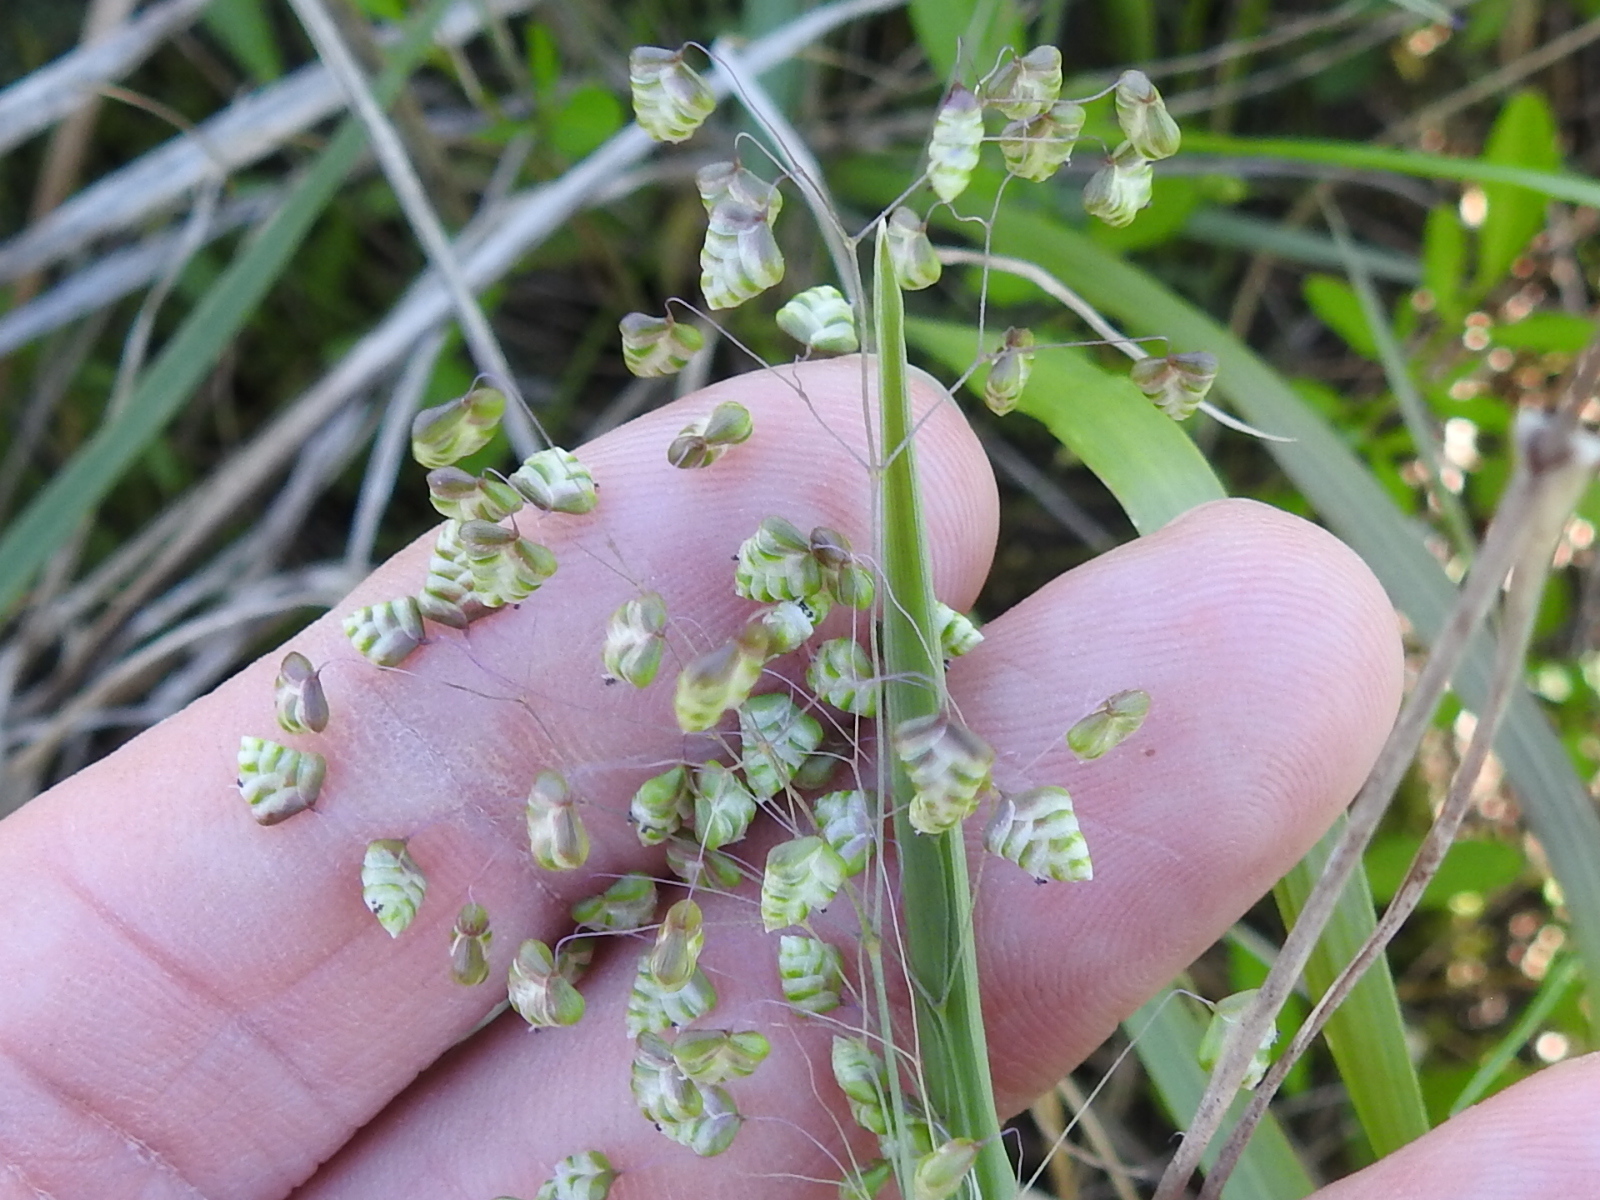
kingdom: Plantae
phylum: Tracheophyta
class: Liliopsida
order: Poales
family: Poaceae
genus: Briza
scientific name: Briza minor
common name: Lesser quaking-grass
